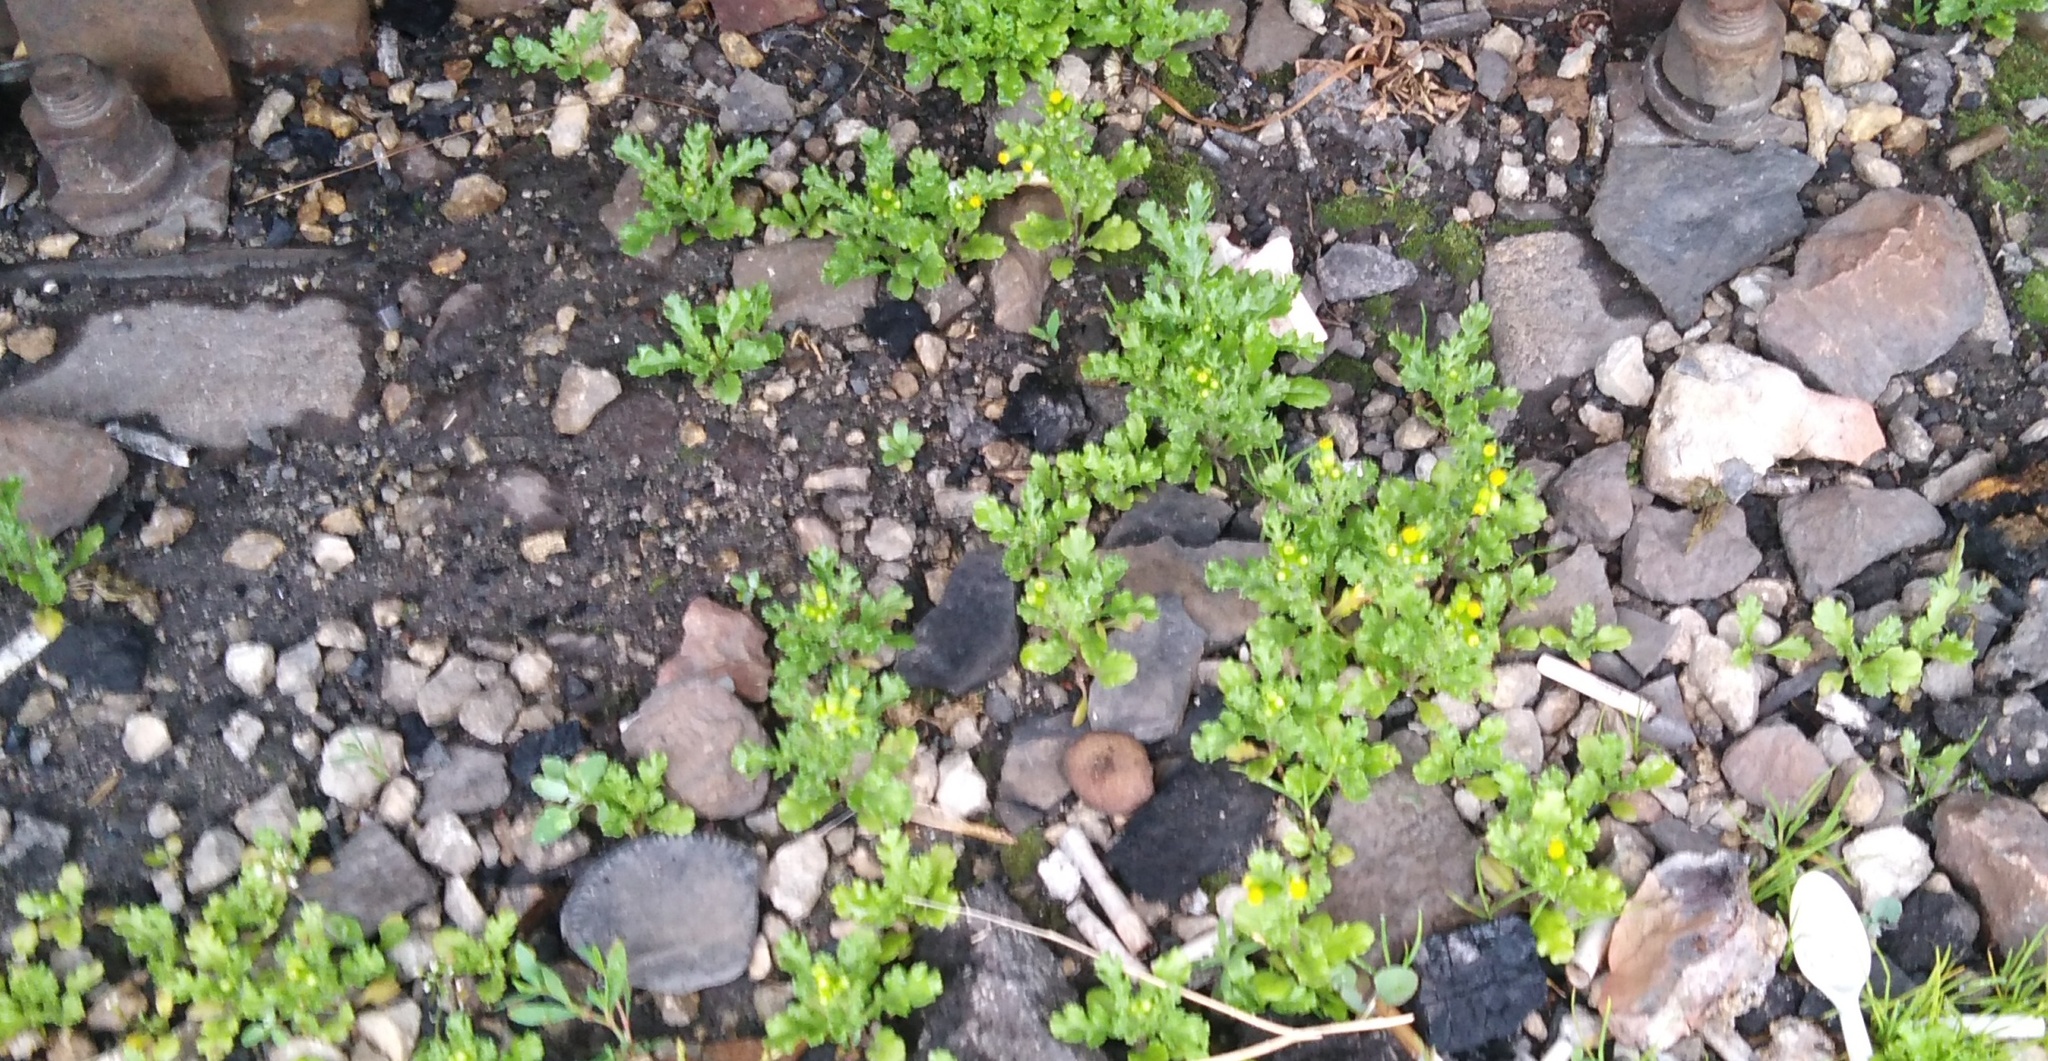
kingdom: Plantae
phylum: Tracheophyta
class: Magnoliopsida
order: Asterales
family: Asteraceae
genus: Senecio
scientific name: Senecio vulgaris
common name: Old-man-in-the-spring
